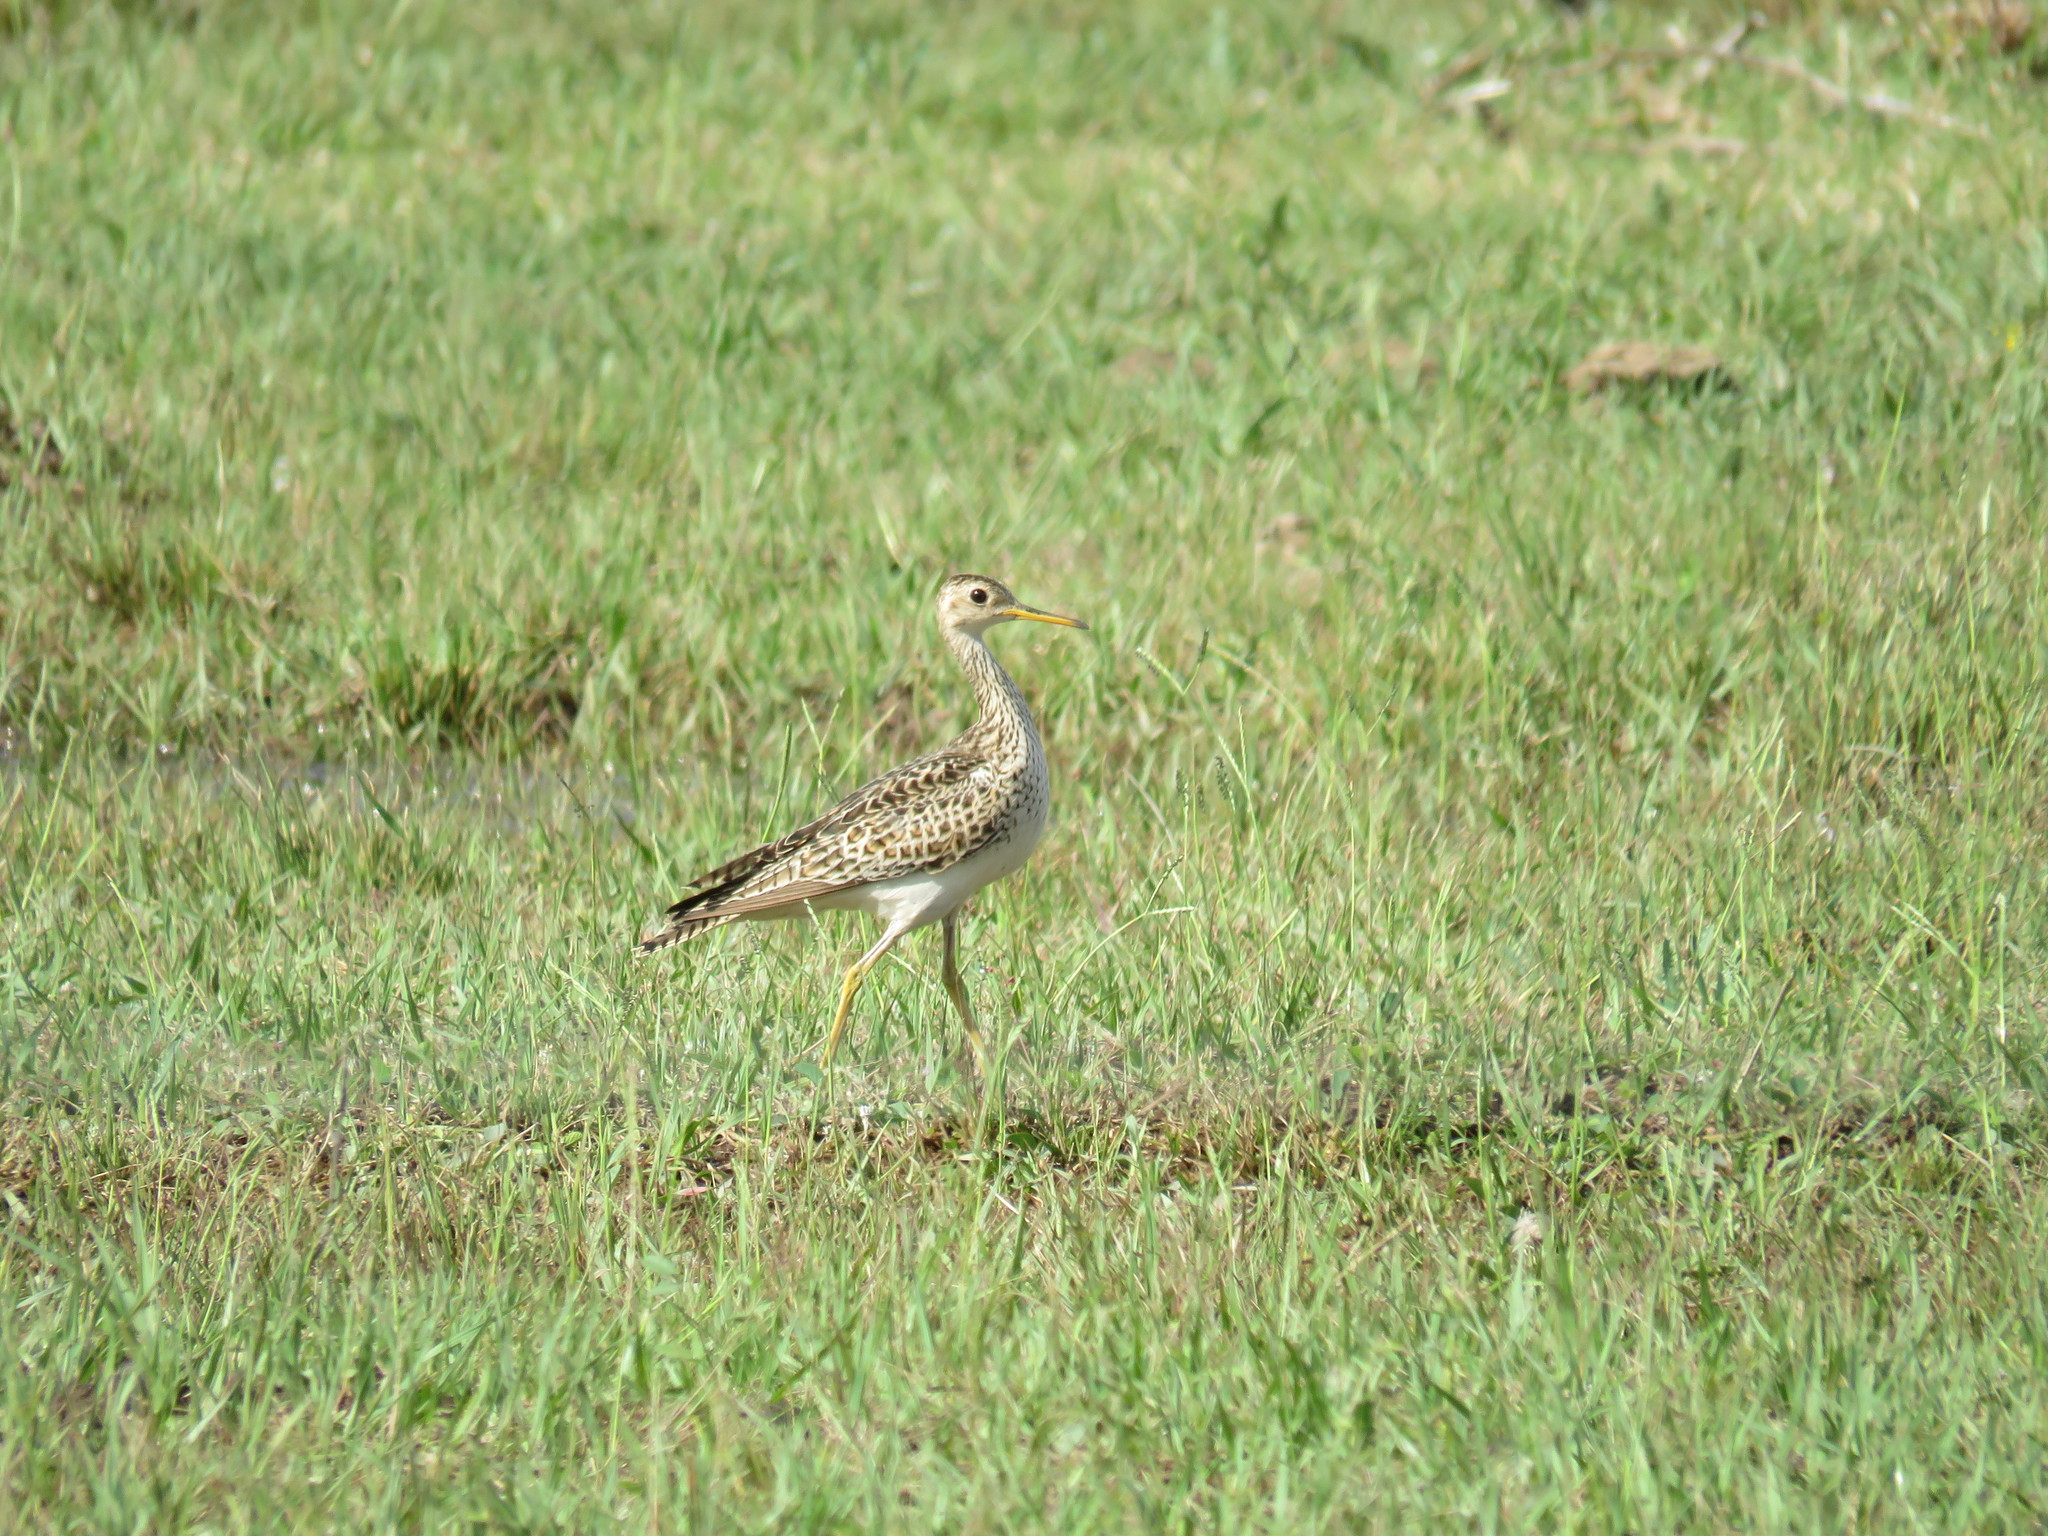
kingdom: Animalia
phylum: Chordata
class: Aves
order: Charadriiformes
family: Scolopacidae
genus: Bartramia
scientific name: Bartramia longicauda
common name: Upland sandpiper
